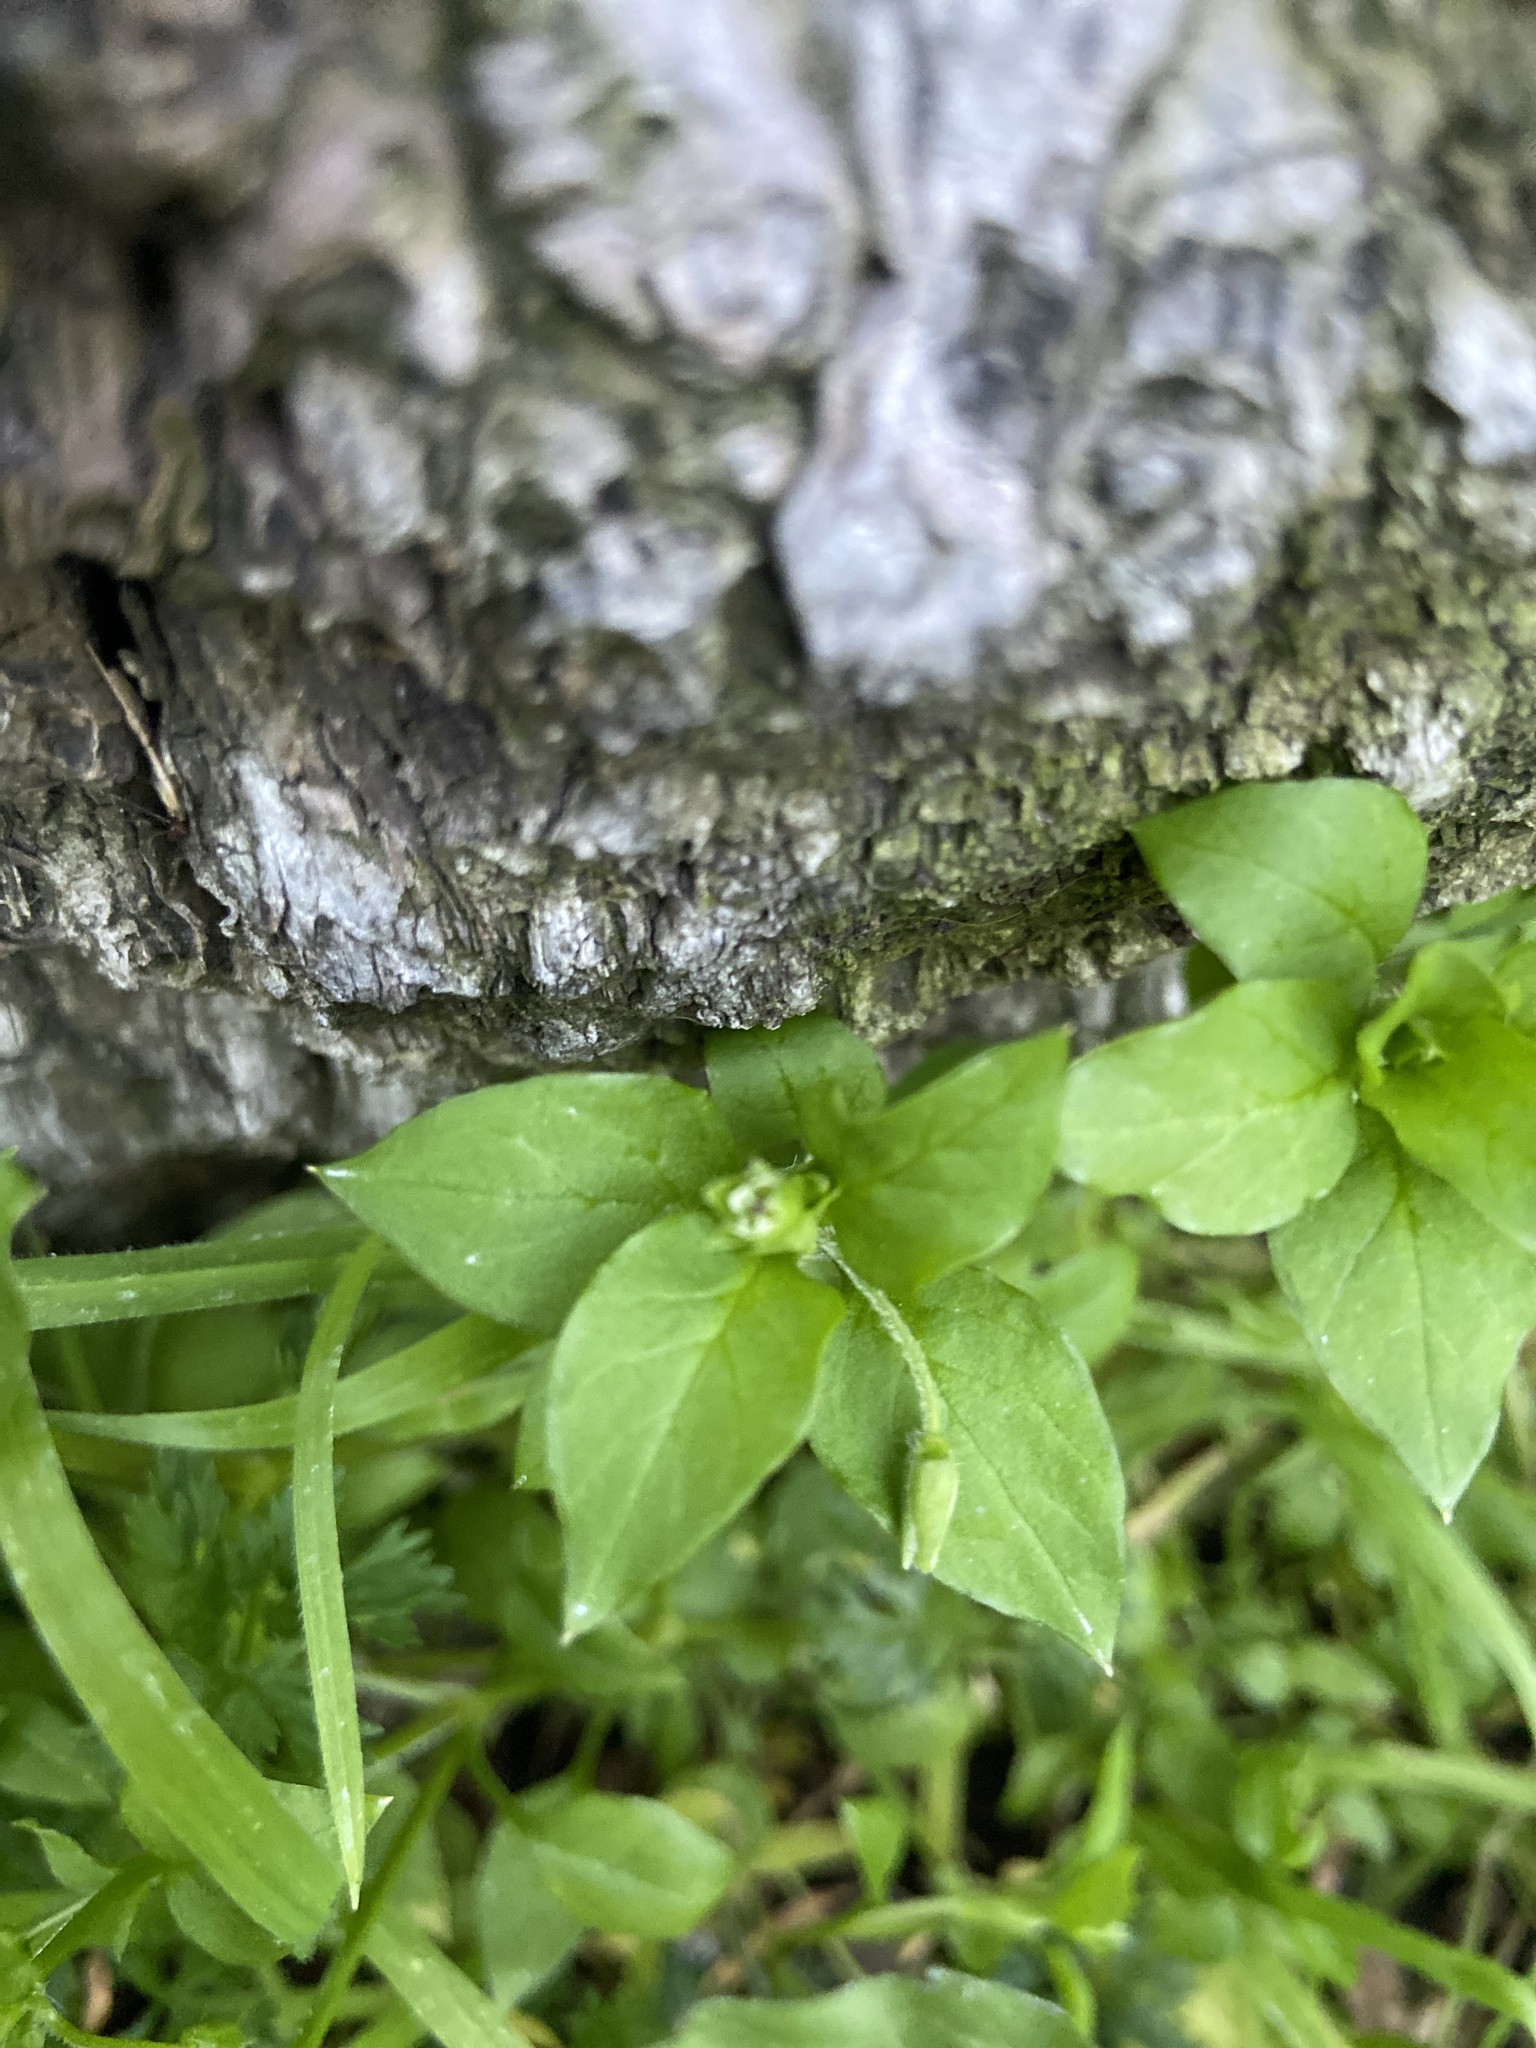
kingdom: Plantae
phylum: Tracheophyta
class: Magnoliopsida
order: Caryophyllales
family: Caryophyllaceae
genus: Stellaria
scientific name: Stellaria media
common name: Common chickweed
